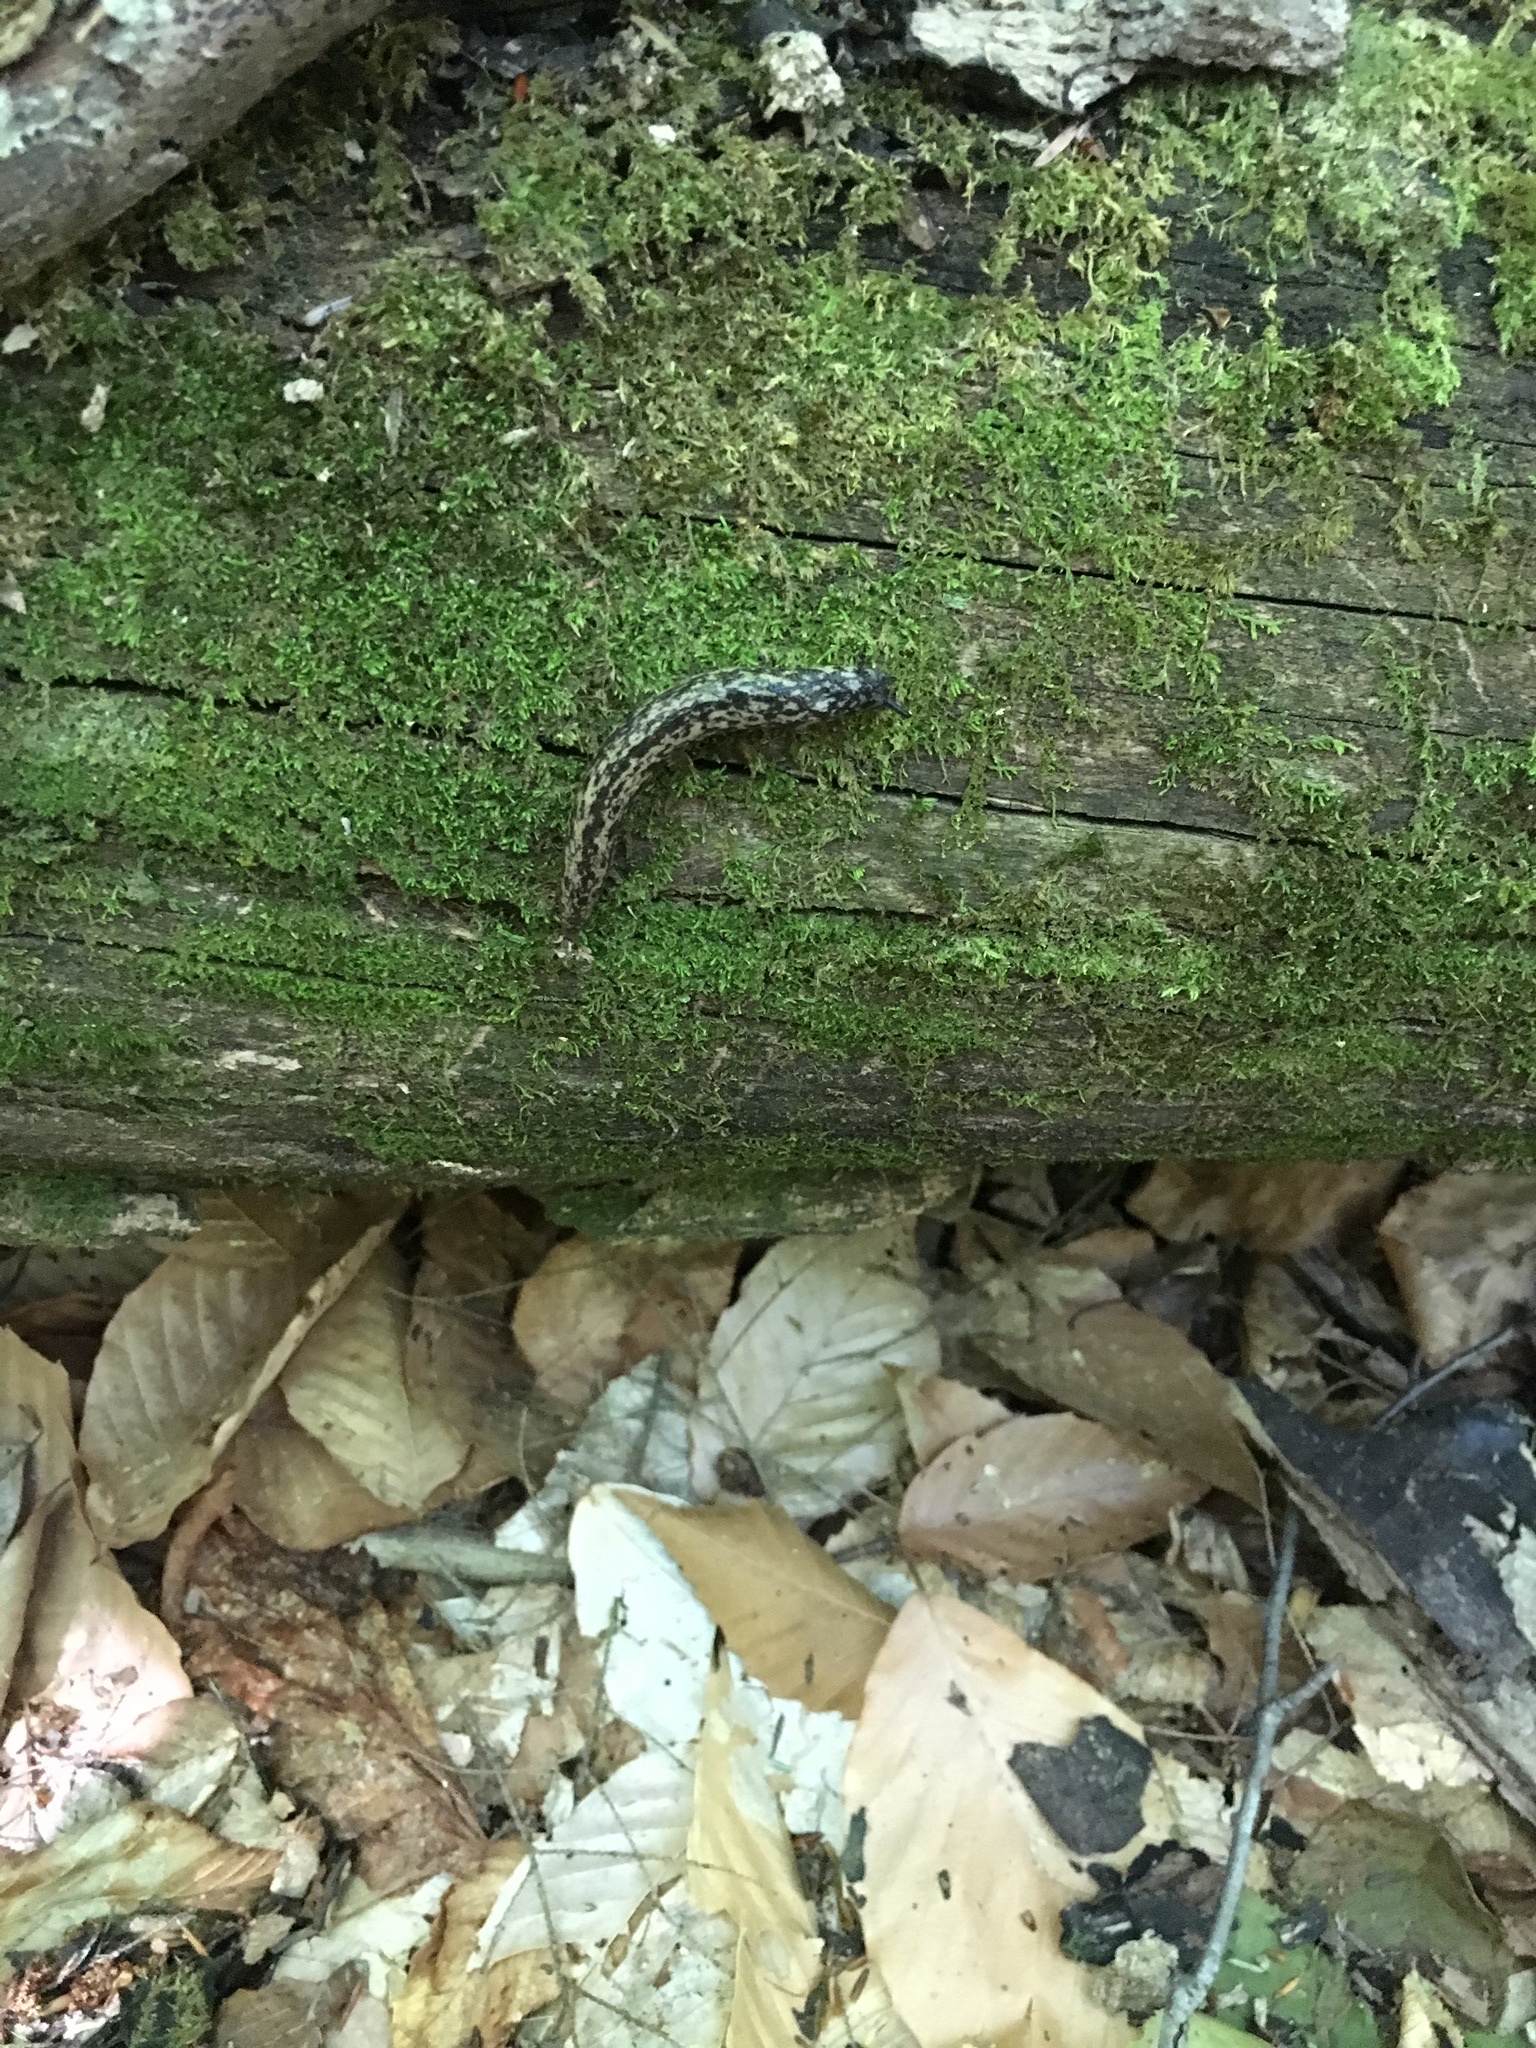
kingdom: Animalia
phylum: Mollusca
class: Gastropoda
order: Stylommatophora
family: Philomycidae
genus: Philomycus
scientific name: Philomycus flexuolaris
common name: Winding mantleslug
